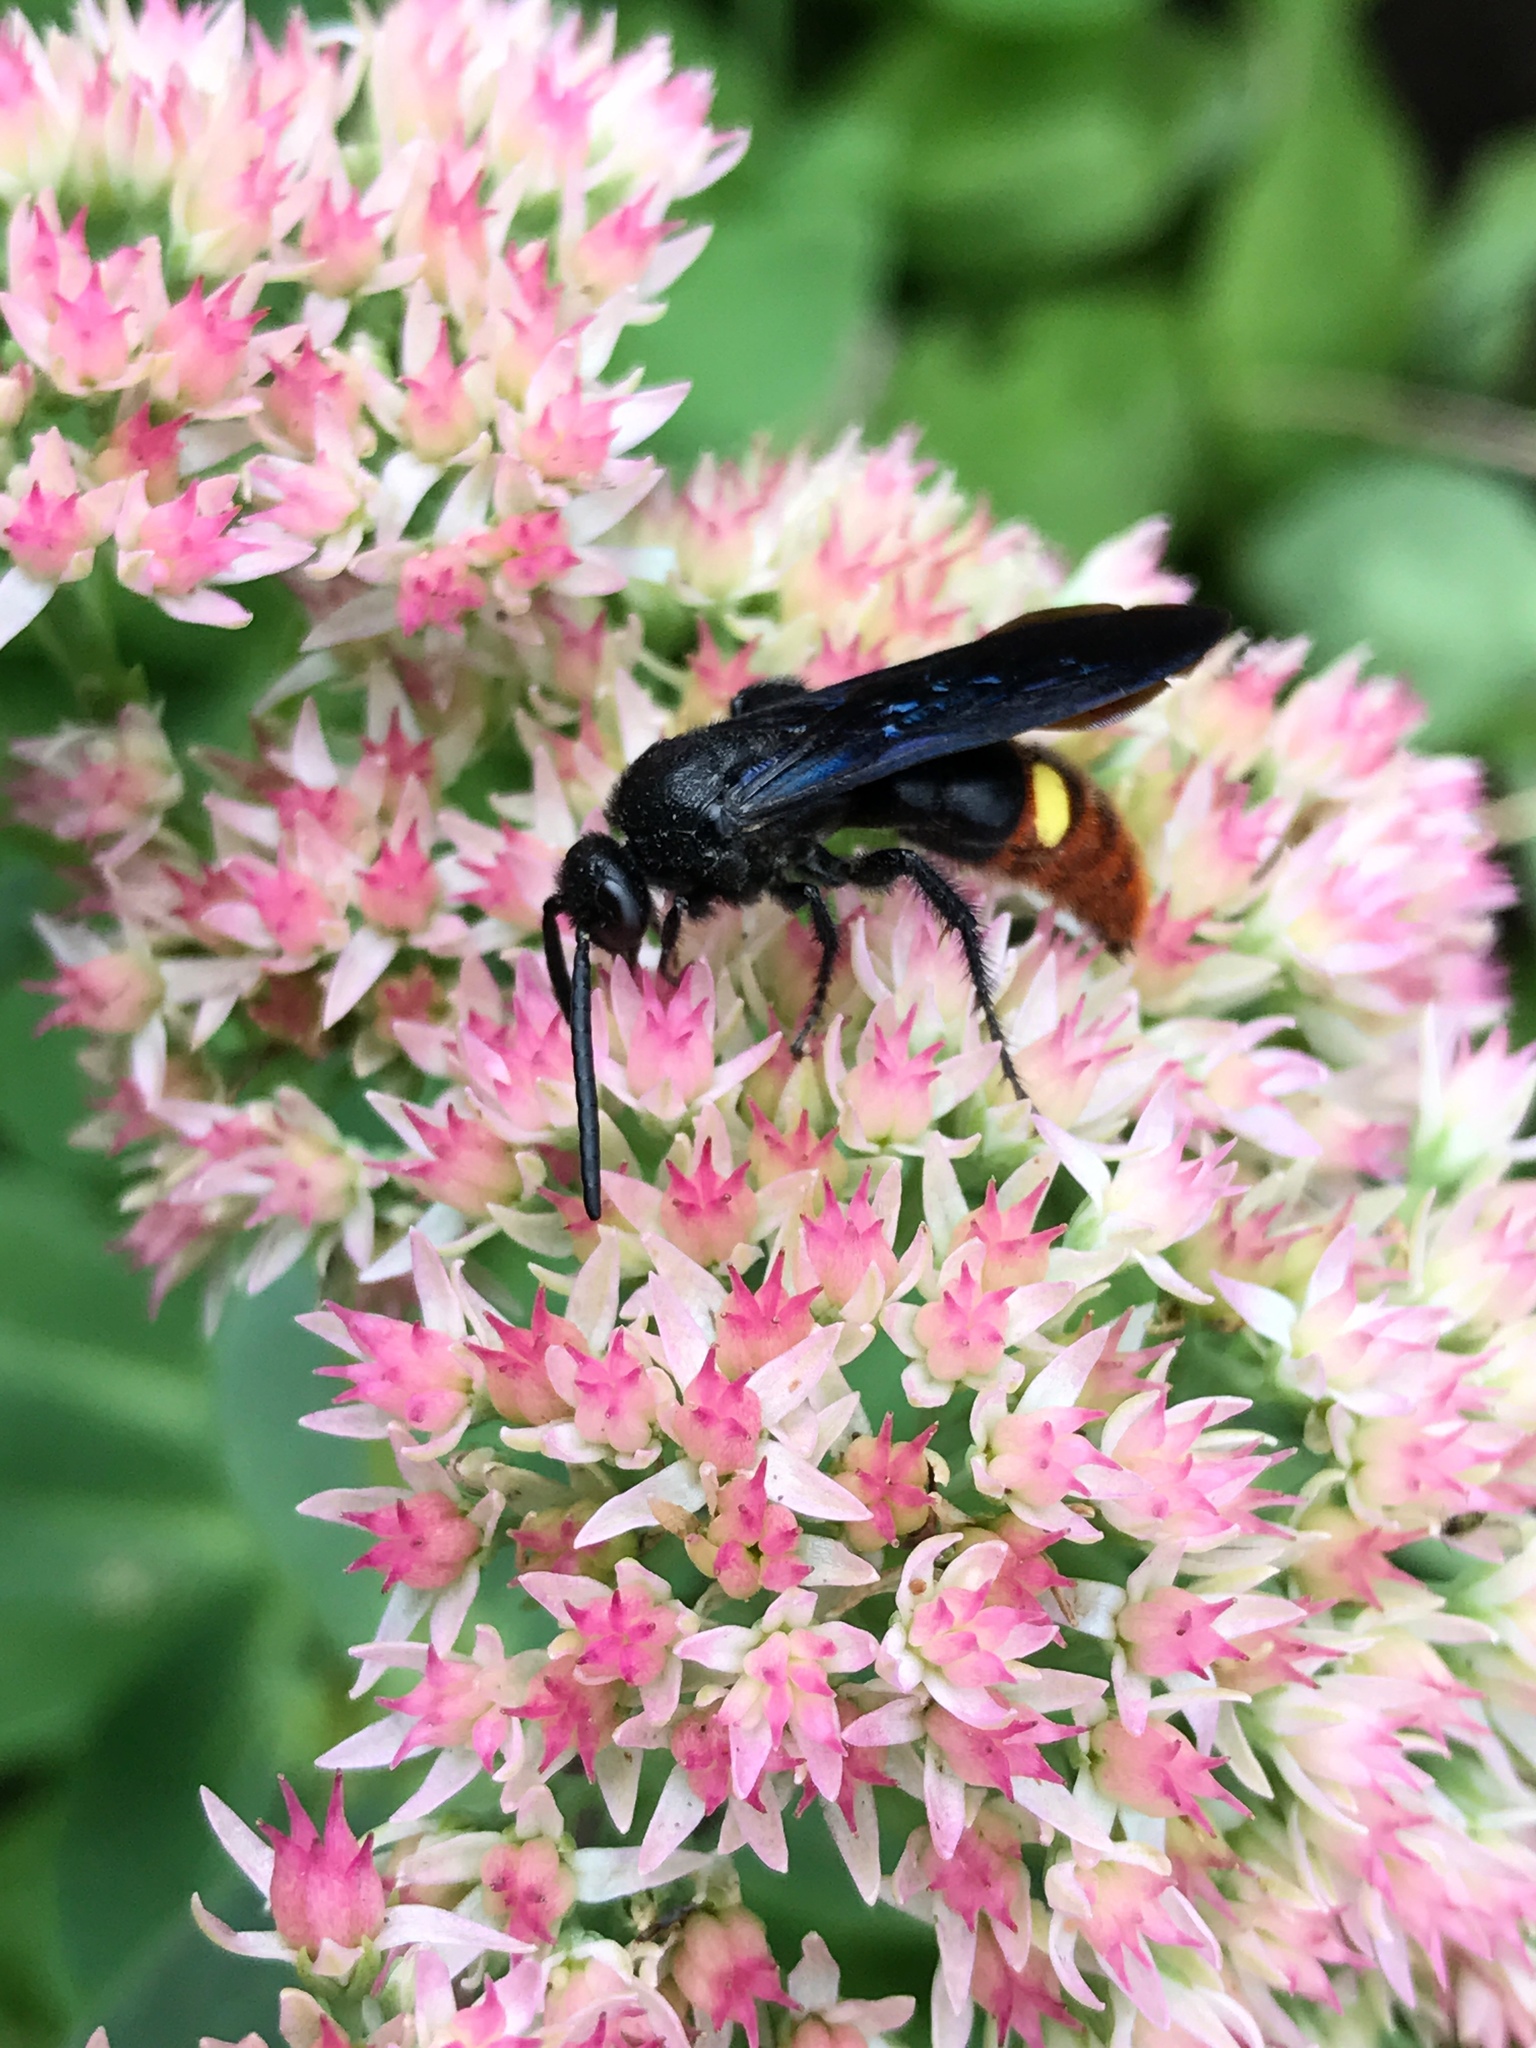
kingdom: Animalia
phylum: Arthropoda
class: Insecta
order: Hymenoptera
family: Scoliidae
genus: Scolia
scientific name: Scolia dubia
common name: Blue-winged scoliid wasp
